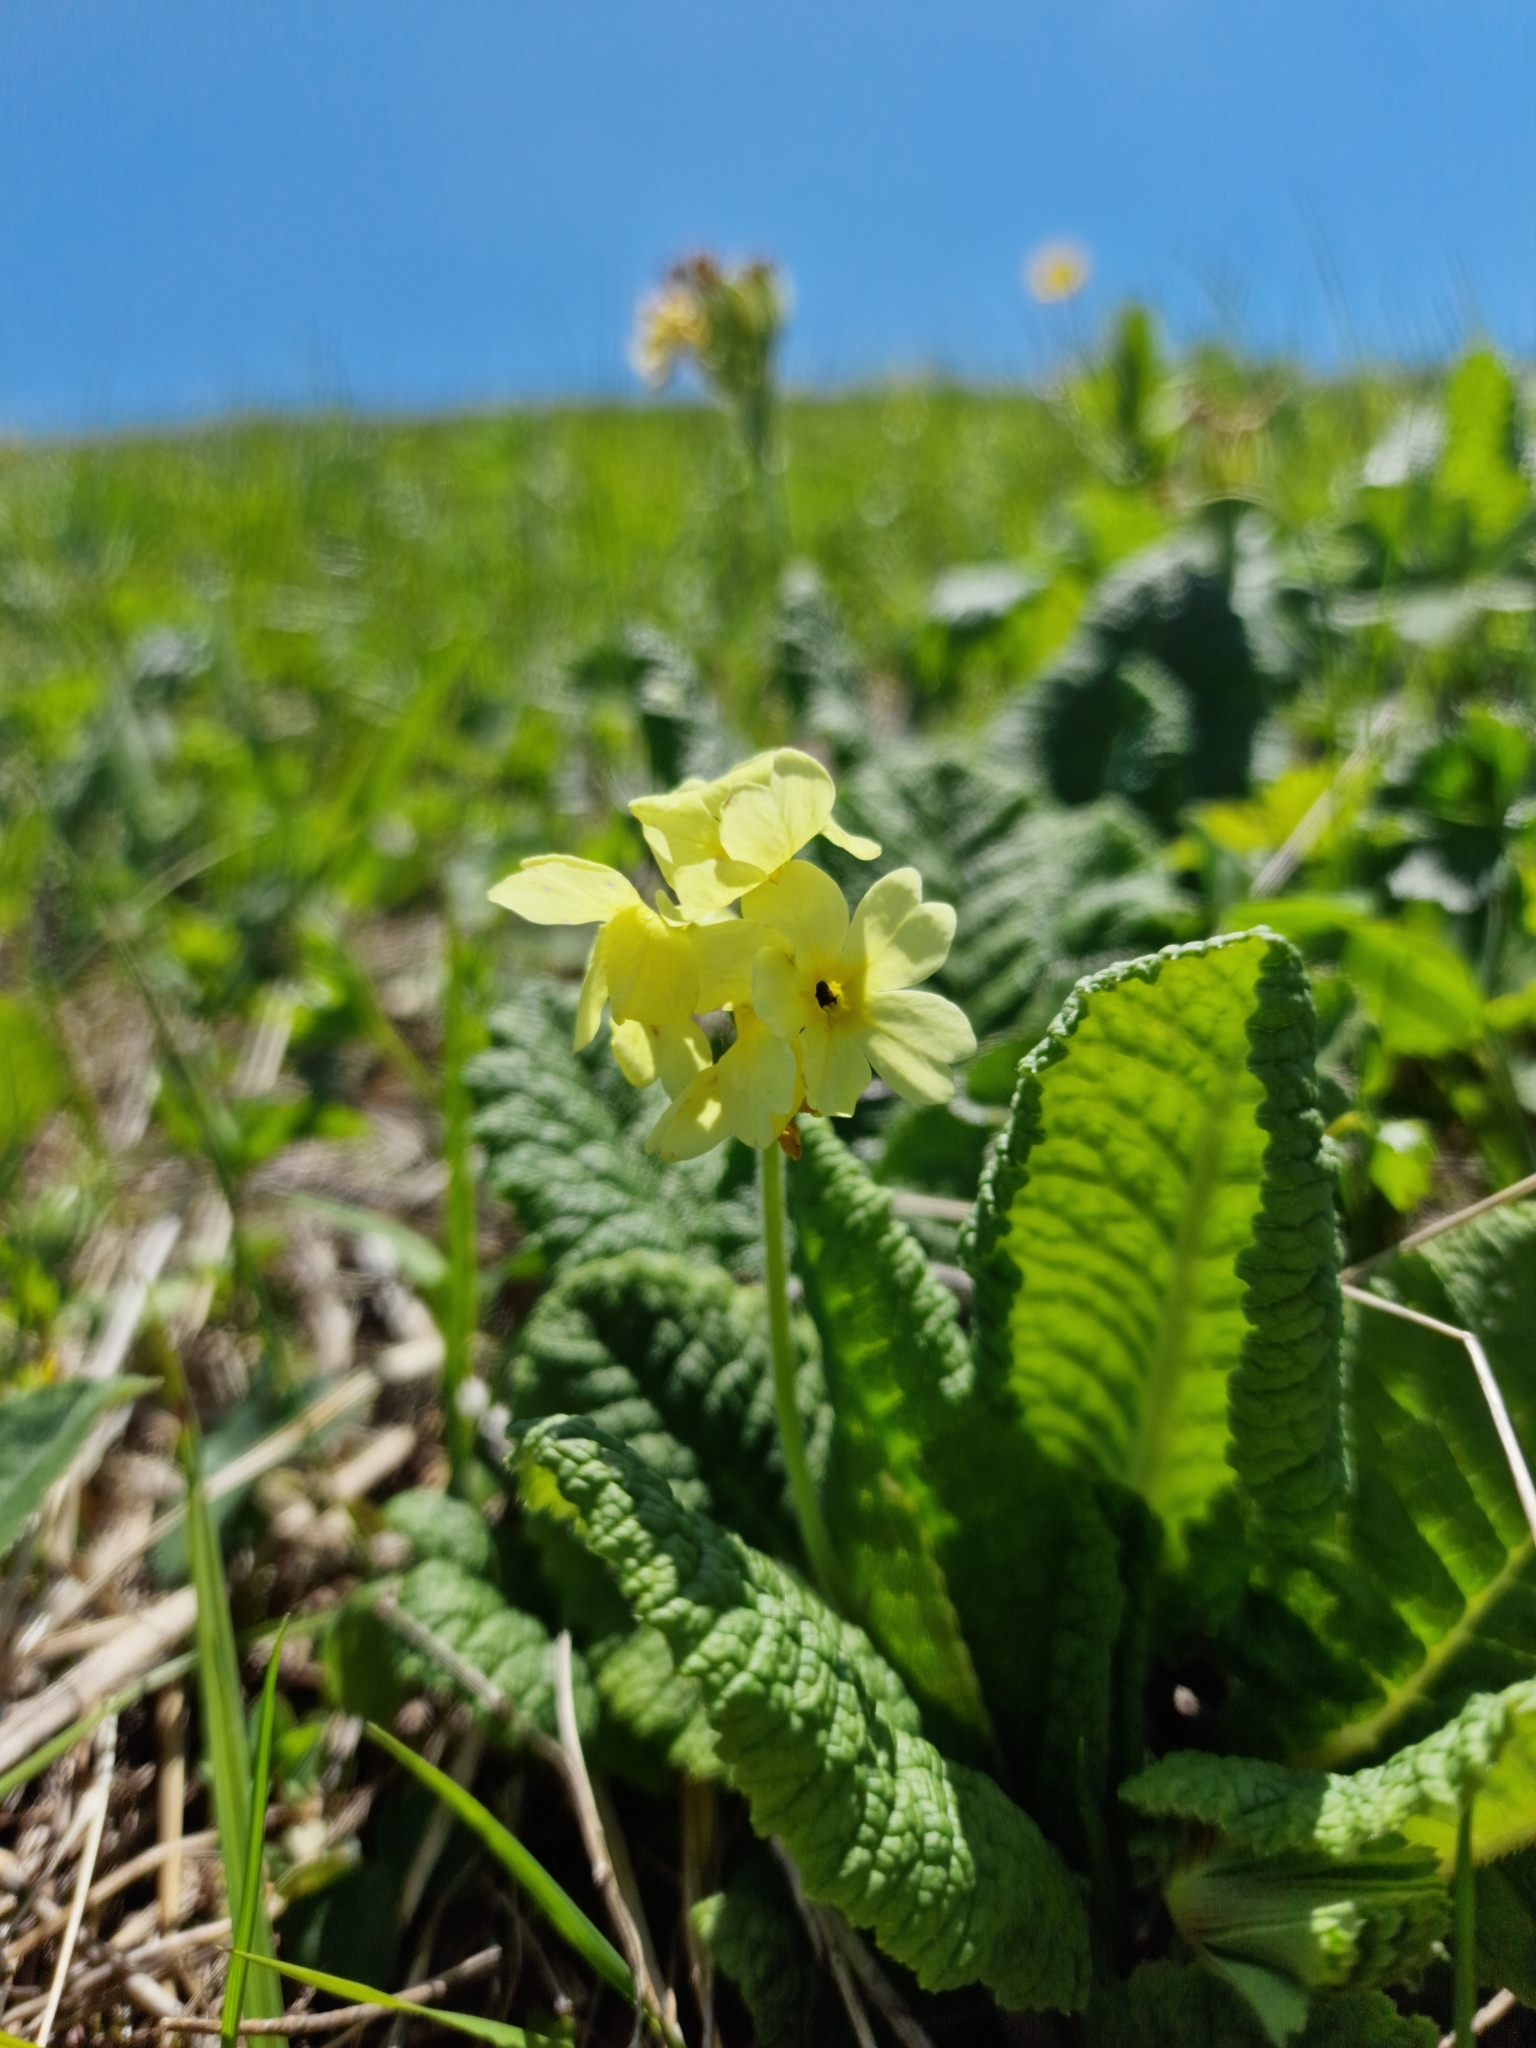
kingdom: Plantae
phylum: Tracheophyta
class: Magnoliopsida
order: Ericales
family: Primulaceae
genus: Primula
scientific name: Primula ruprechtii
